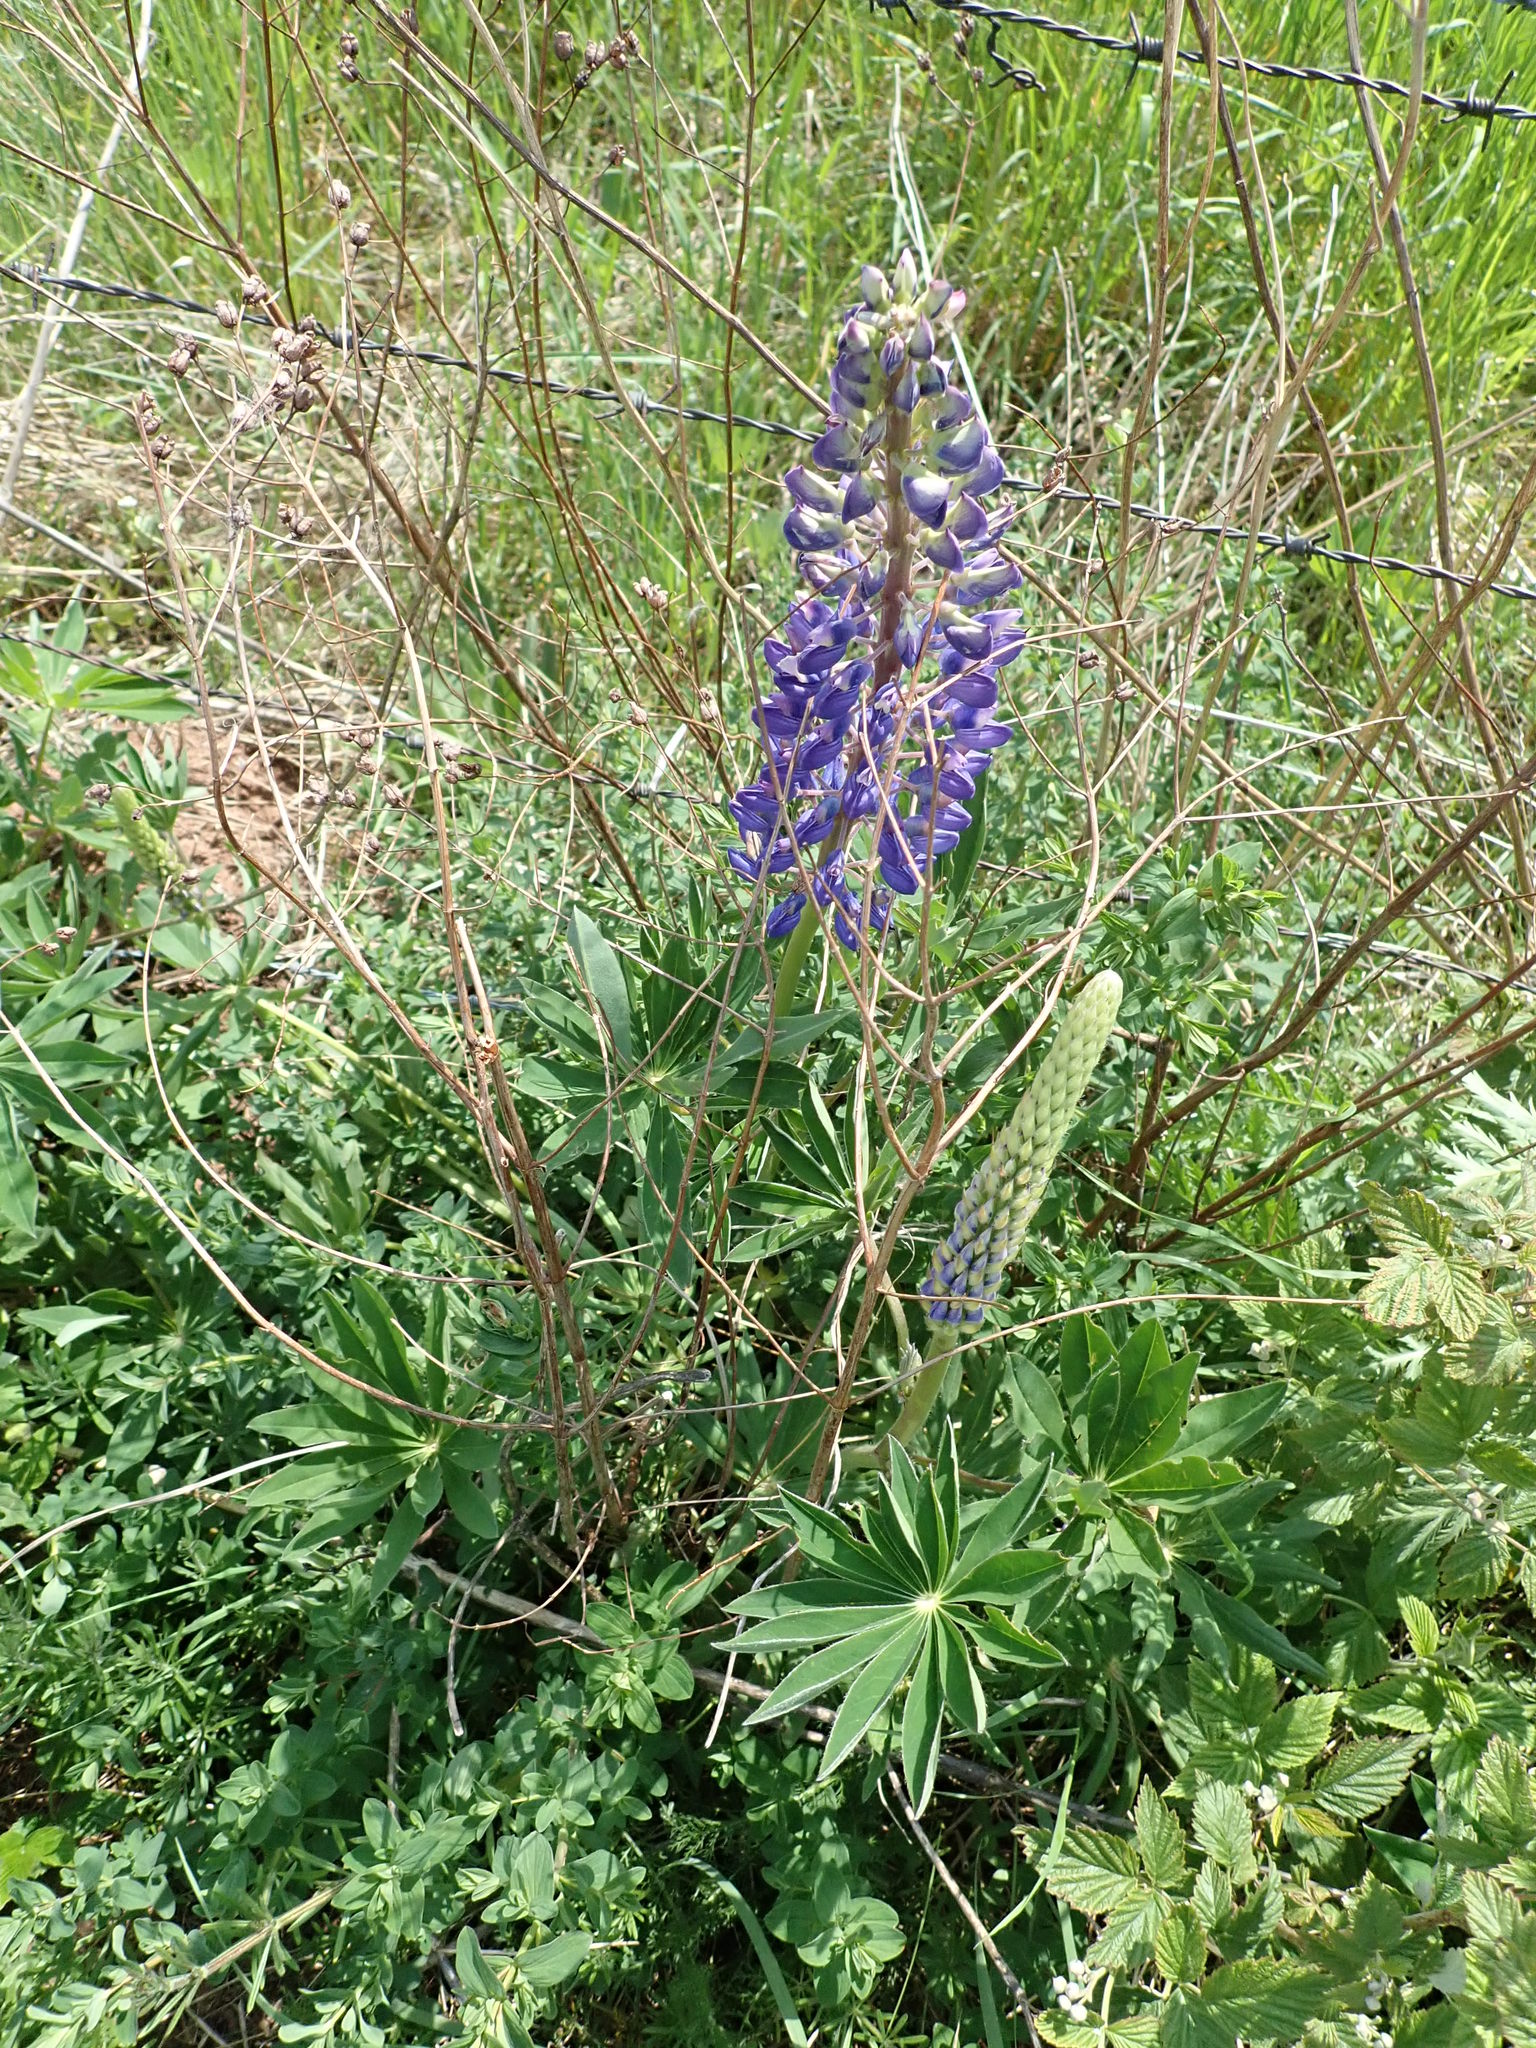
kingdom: Plantae
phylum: Tracheophyta
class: Magnoliopsida
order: Fabales
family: Fabaceae
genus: Lupinus
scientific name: Lupinus polyphyllus
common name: Garden lupin
